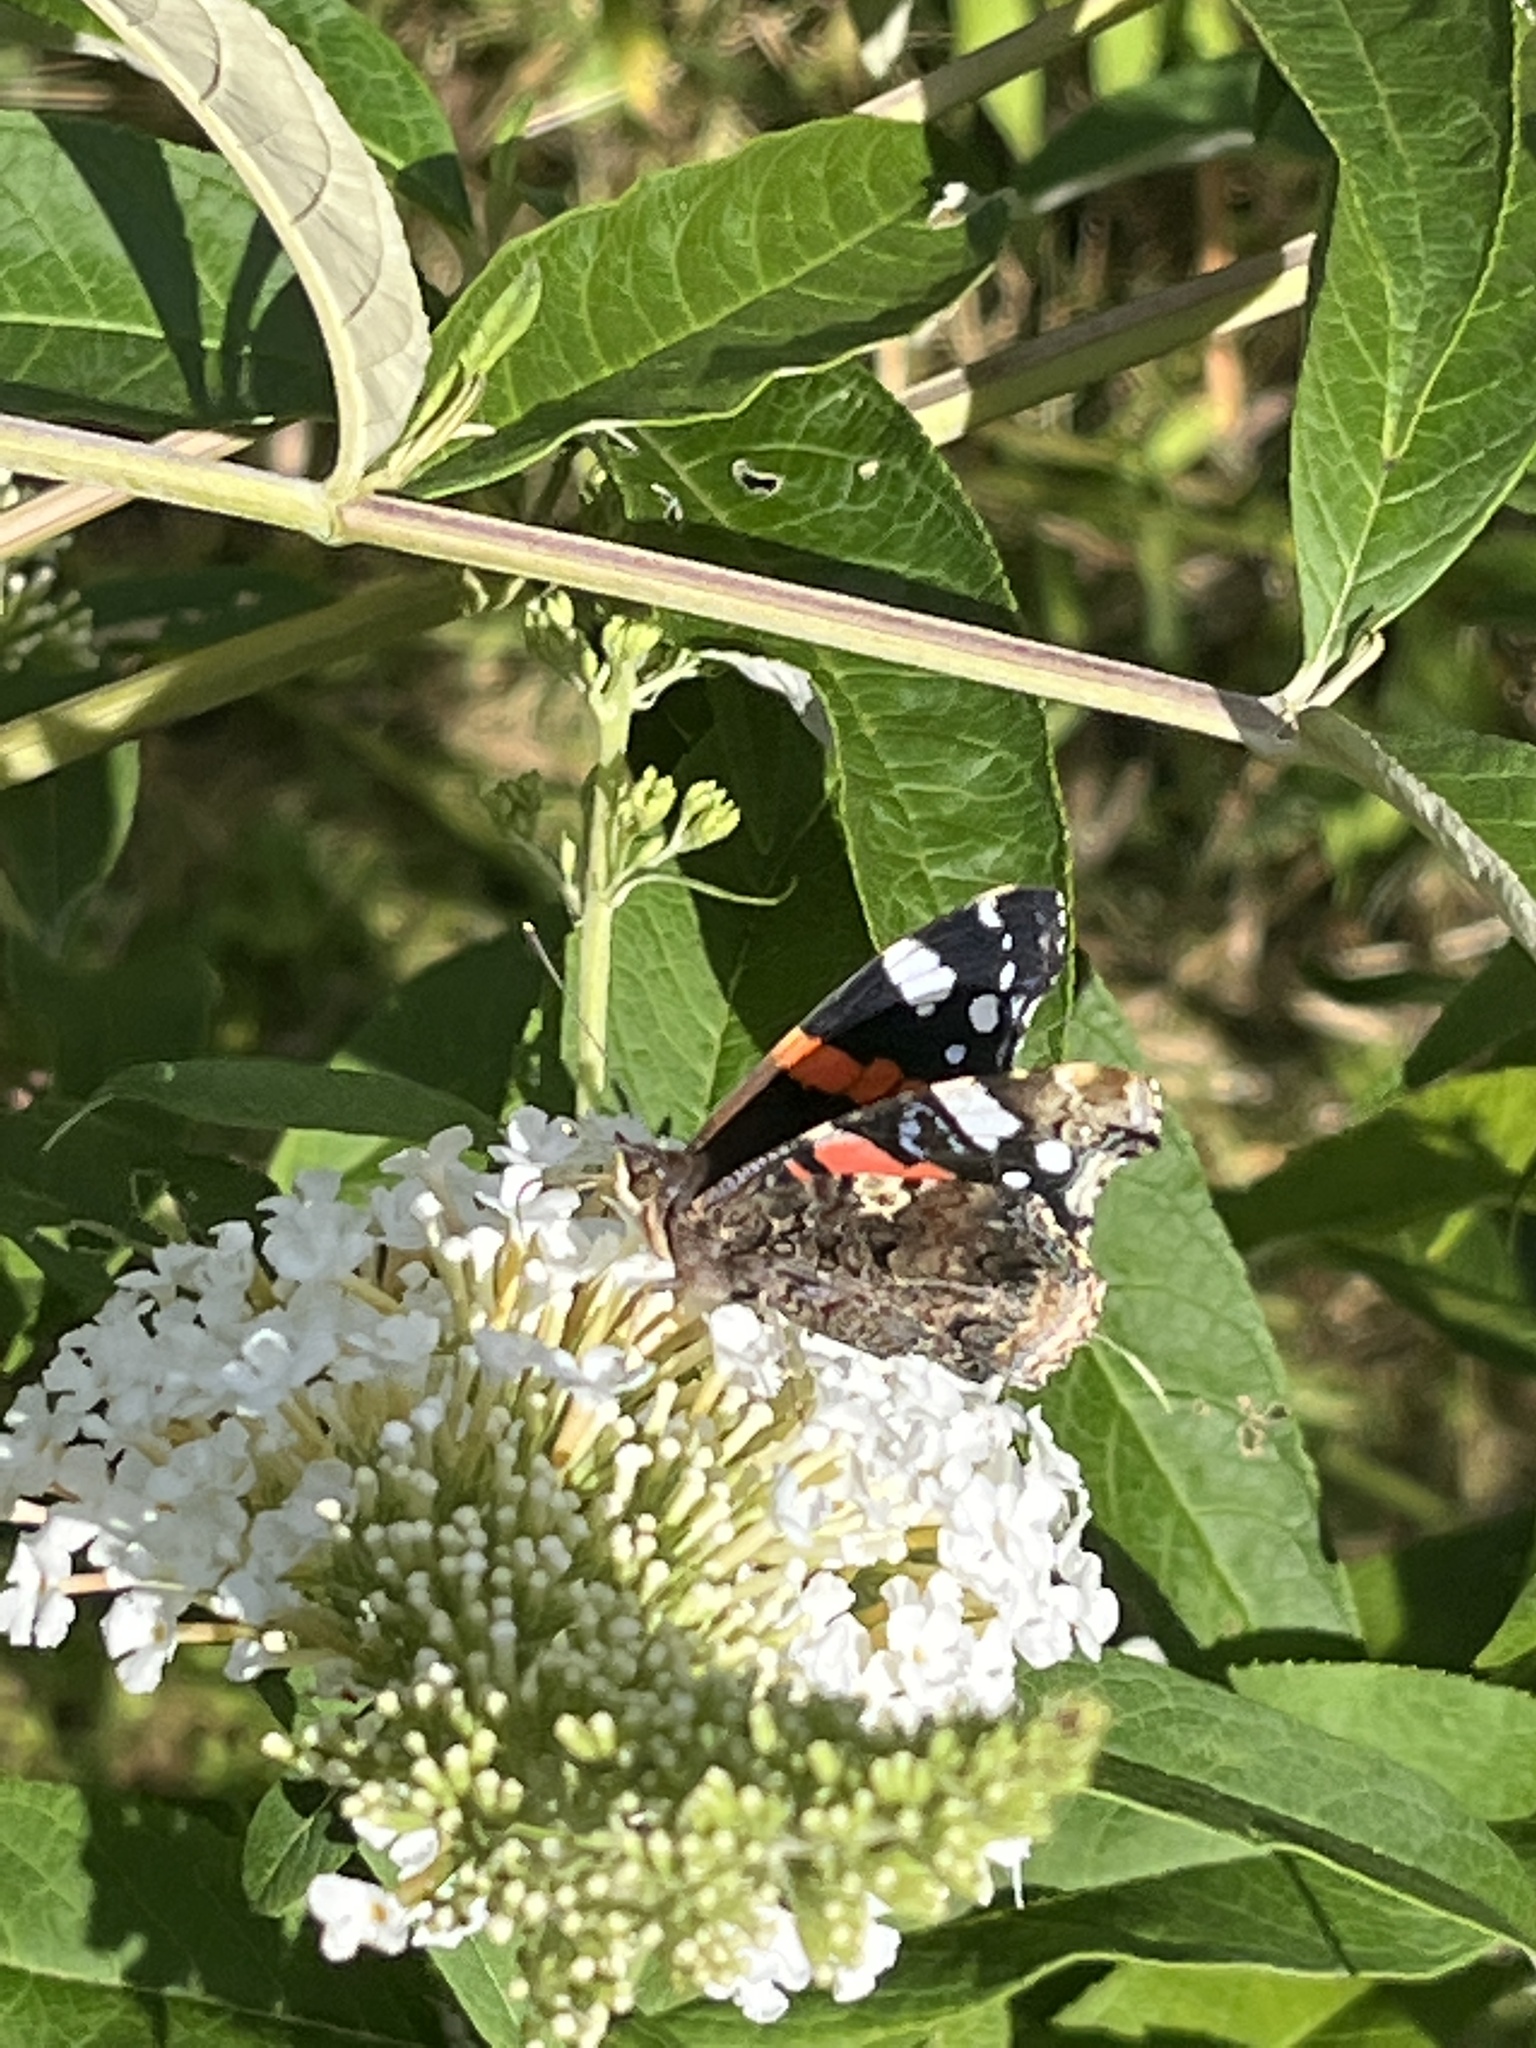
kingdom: Animalia
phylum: Arthropoda
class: Insecta
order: Lepidoptera
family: Nymphalidae
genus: Vanessa
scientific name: Vanessa atalanta
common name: Red admiral
